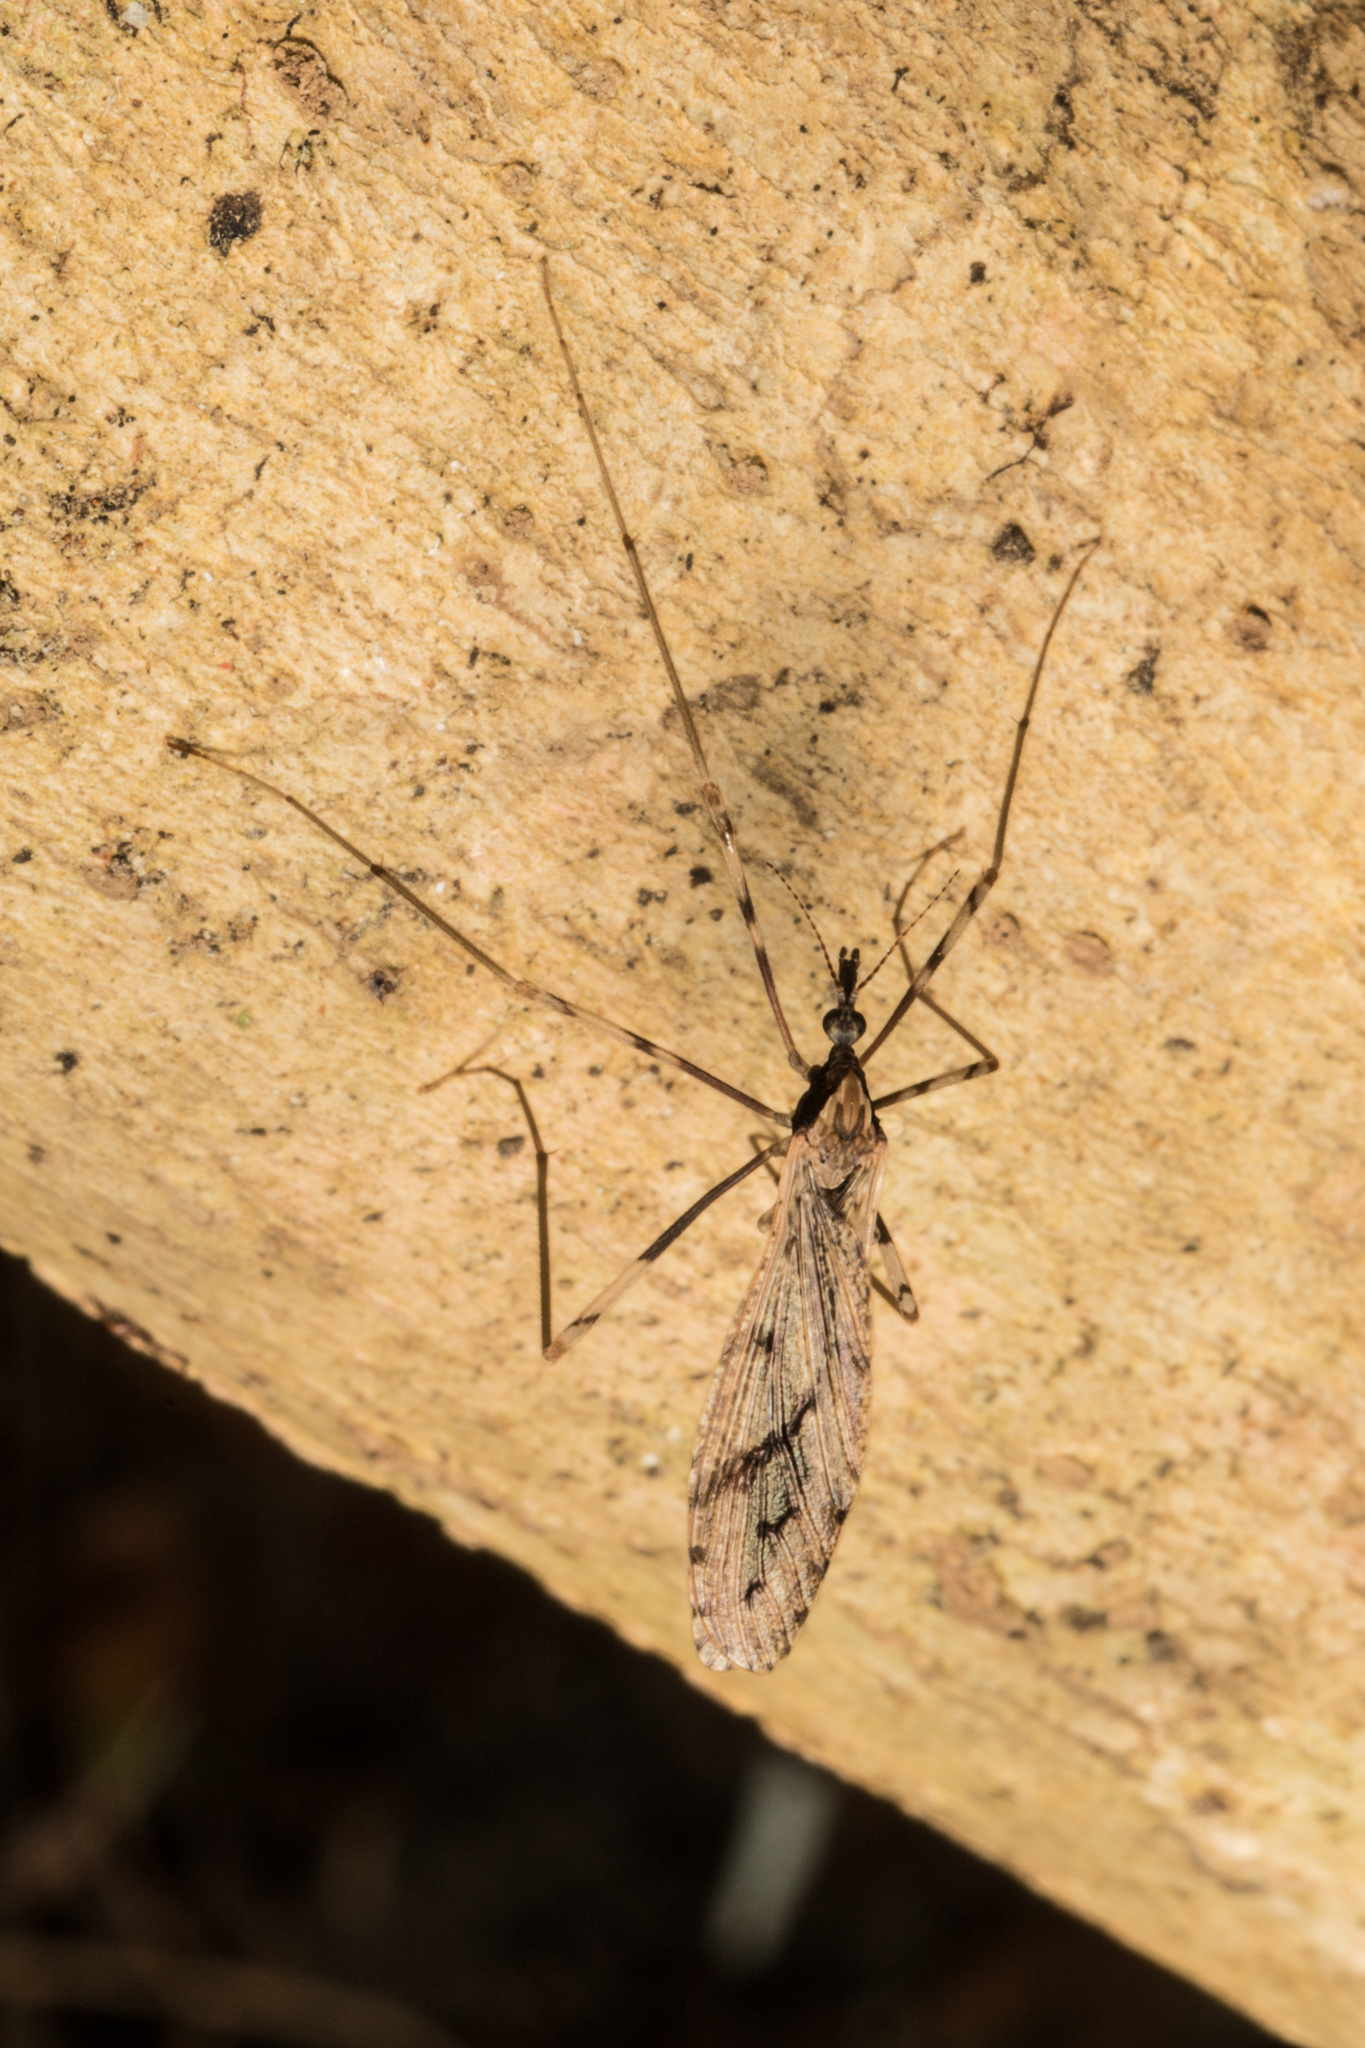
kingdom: Animalia
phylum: Arthropoda
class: Insecta
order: Diptera
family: Limoniidae
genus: Rhamphophila
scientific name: Rhamphophila sinistra
